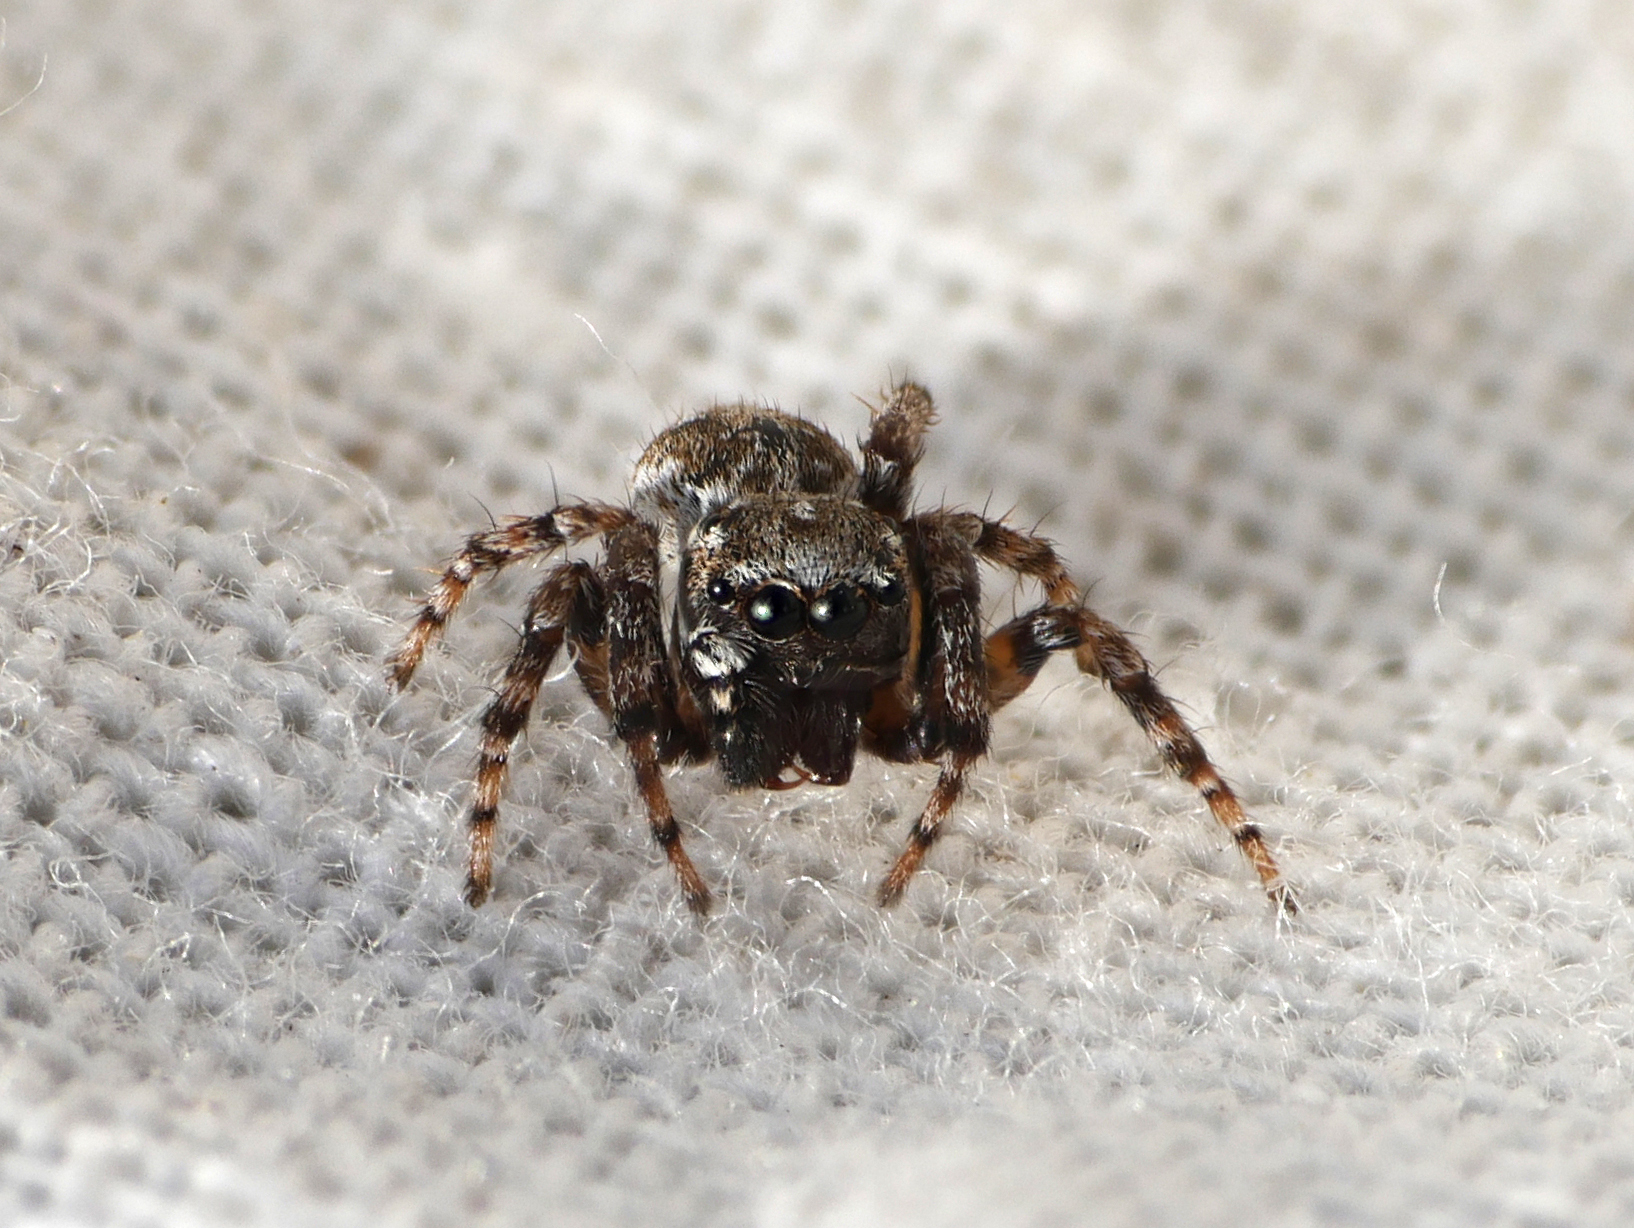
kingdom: Animalia
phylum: Arthropoda
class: Arachnida
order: Araneae
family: Salticidae
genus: Attulus
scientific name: Attulus distinguendus
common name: Distinguished jumper
